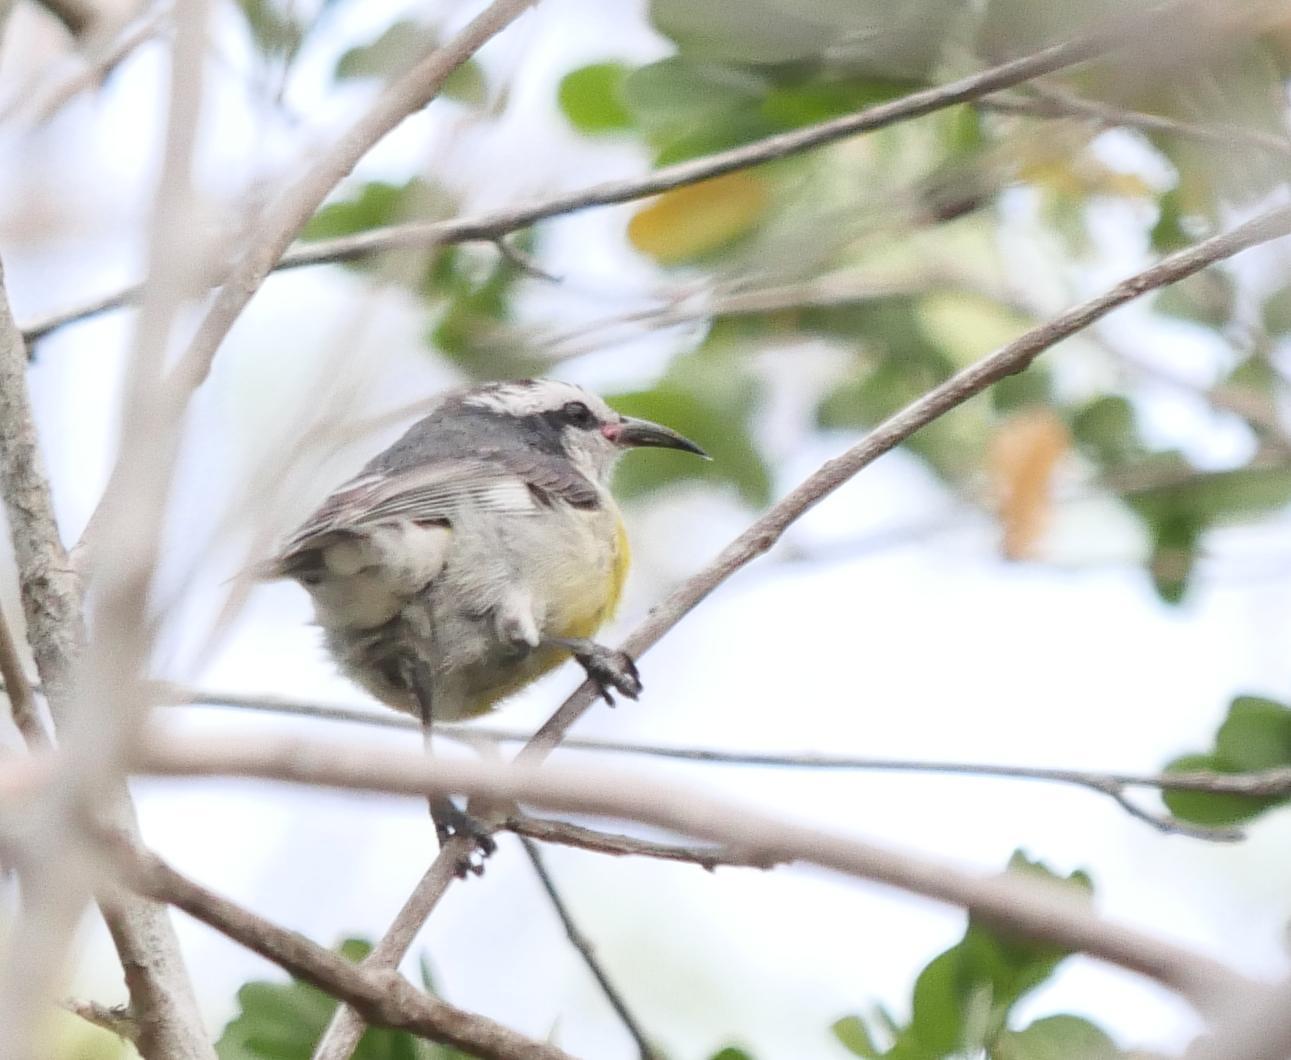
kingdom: Animalia
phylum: Chordata
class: Aves
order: Passeriformes
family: Thraupidae
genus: Coereba
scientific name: Coereba flaveola
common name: Bananaquit
